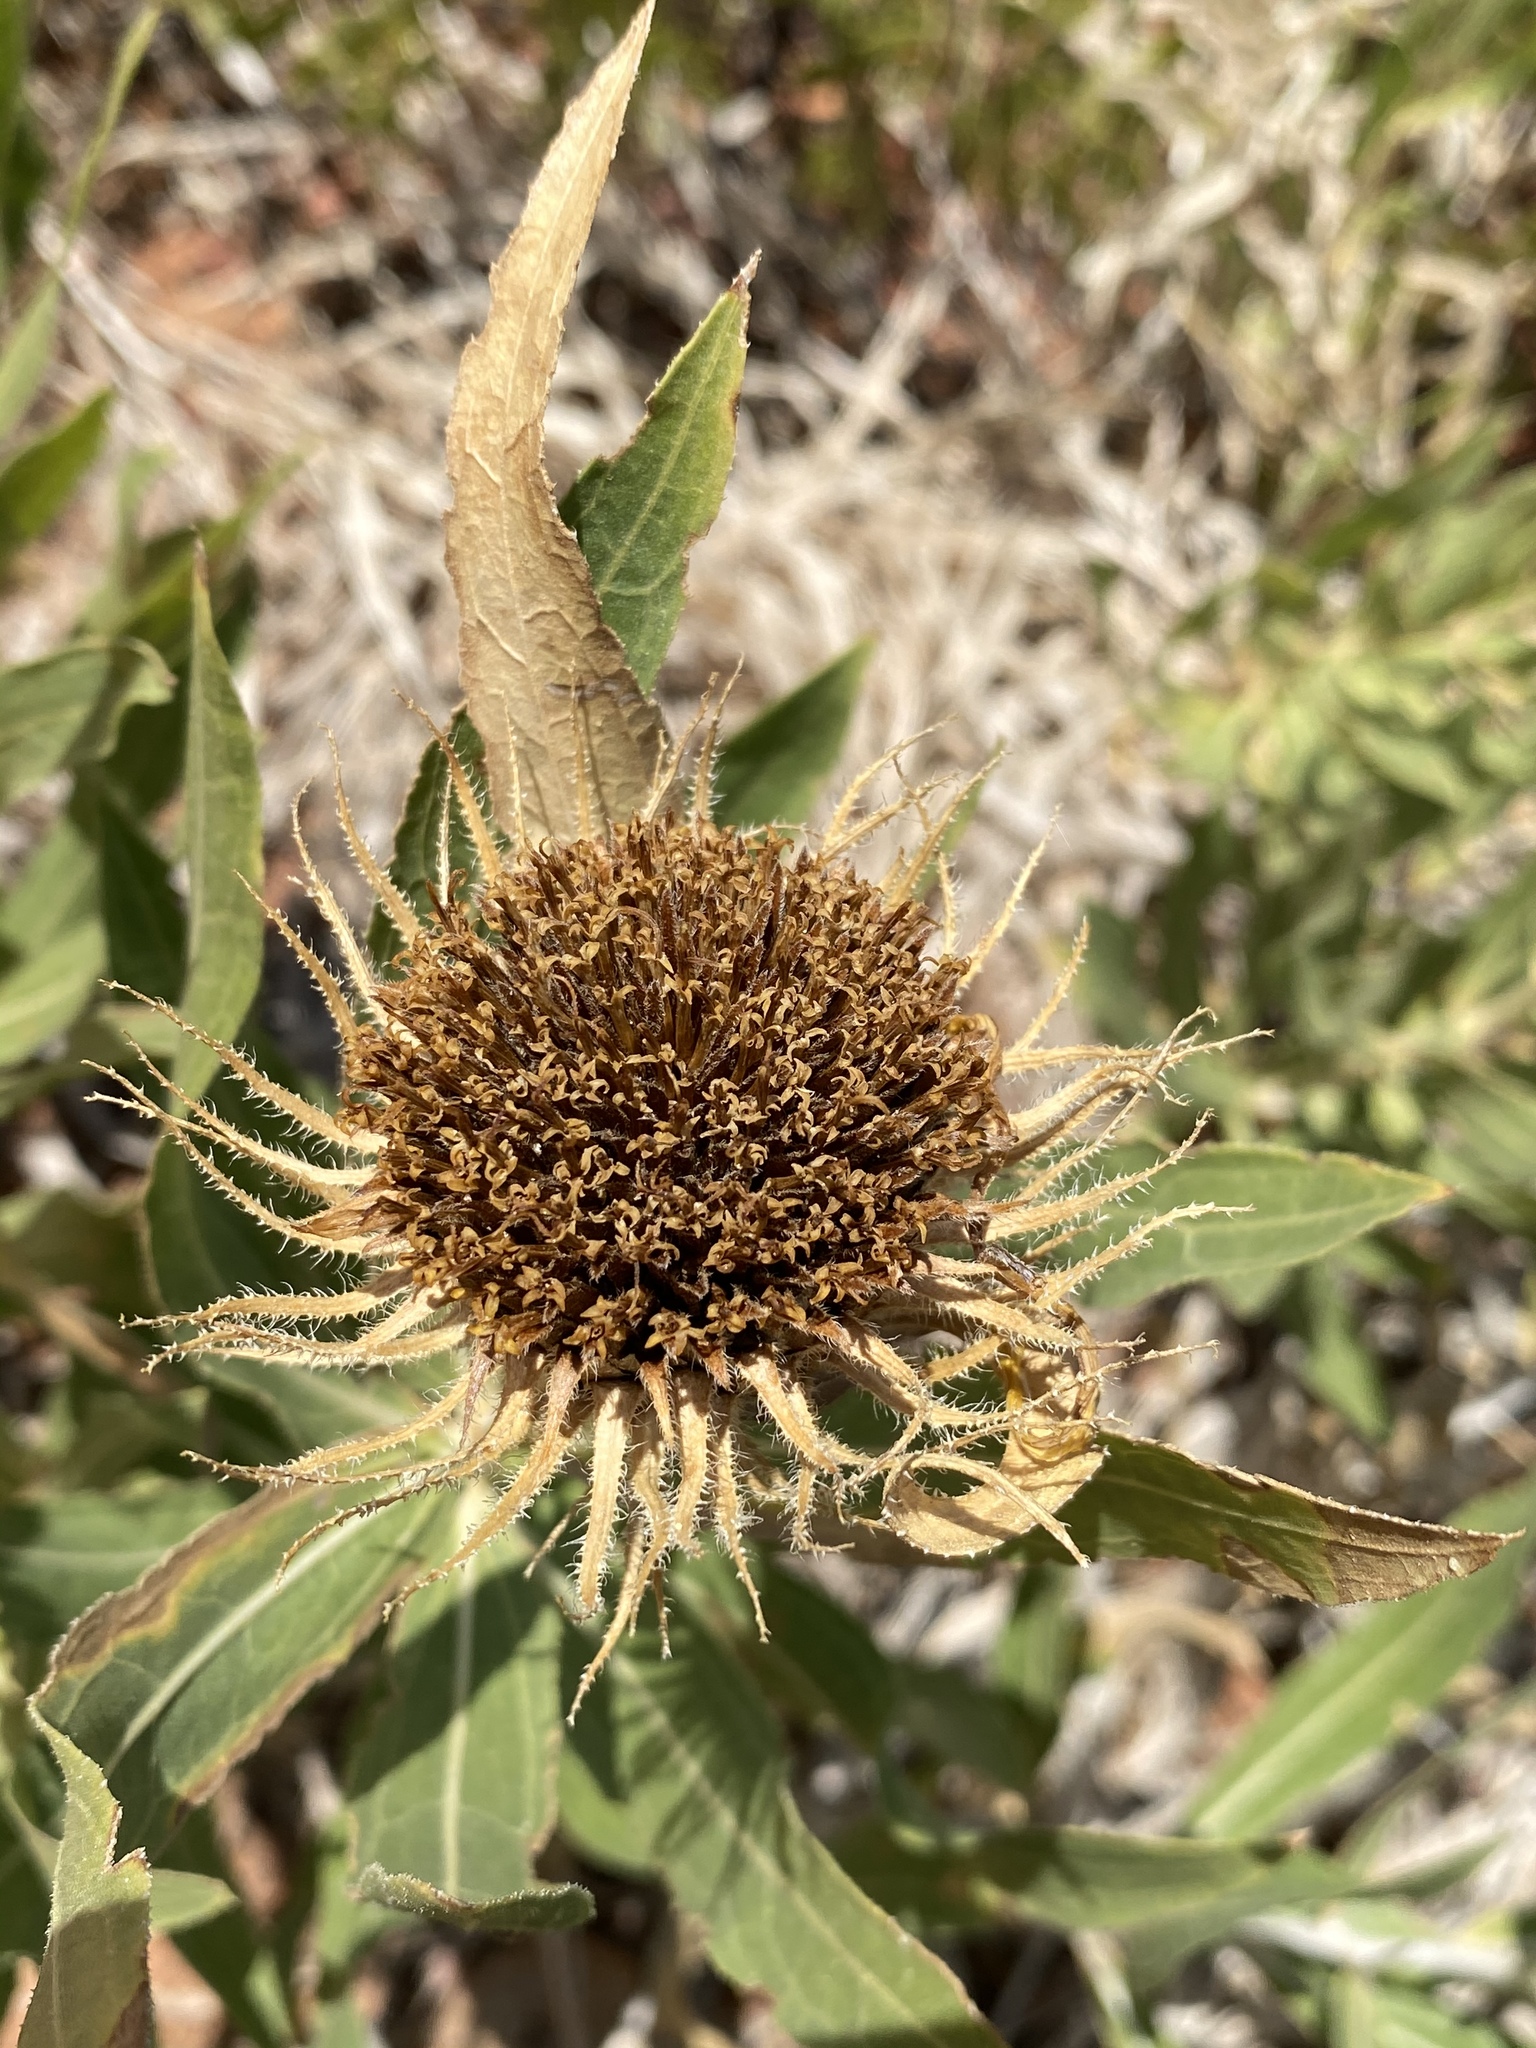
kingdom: Plantae
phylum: Tracheophyta
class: Magnoliopsida
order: Asterales
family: Asteraceae
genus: Scabrethia
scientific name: Scabrethia scabra
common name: Rough mules's-ears
